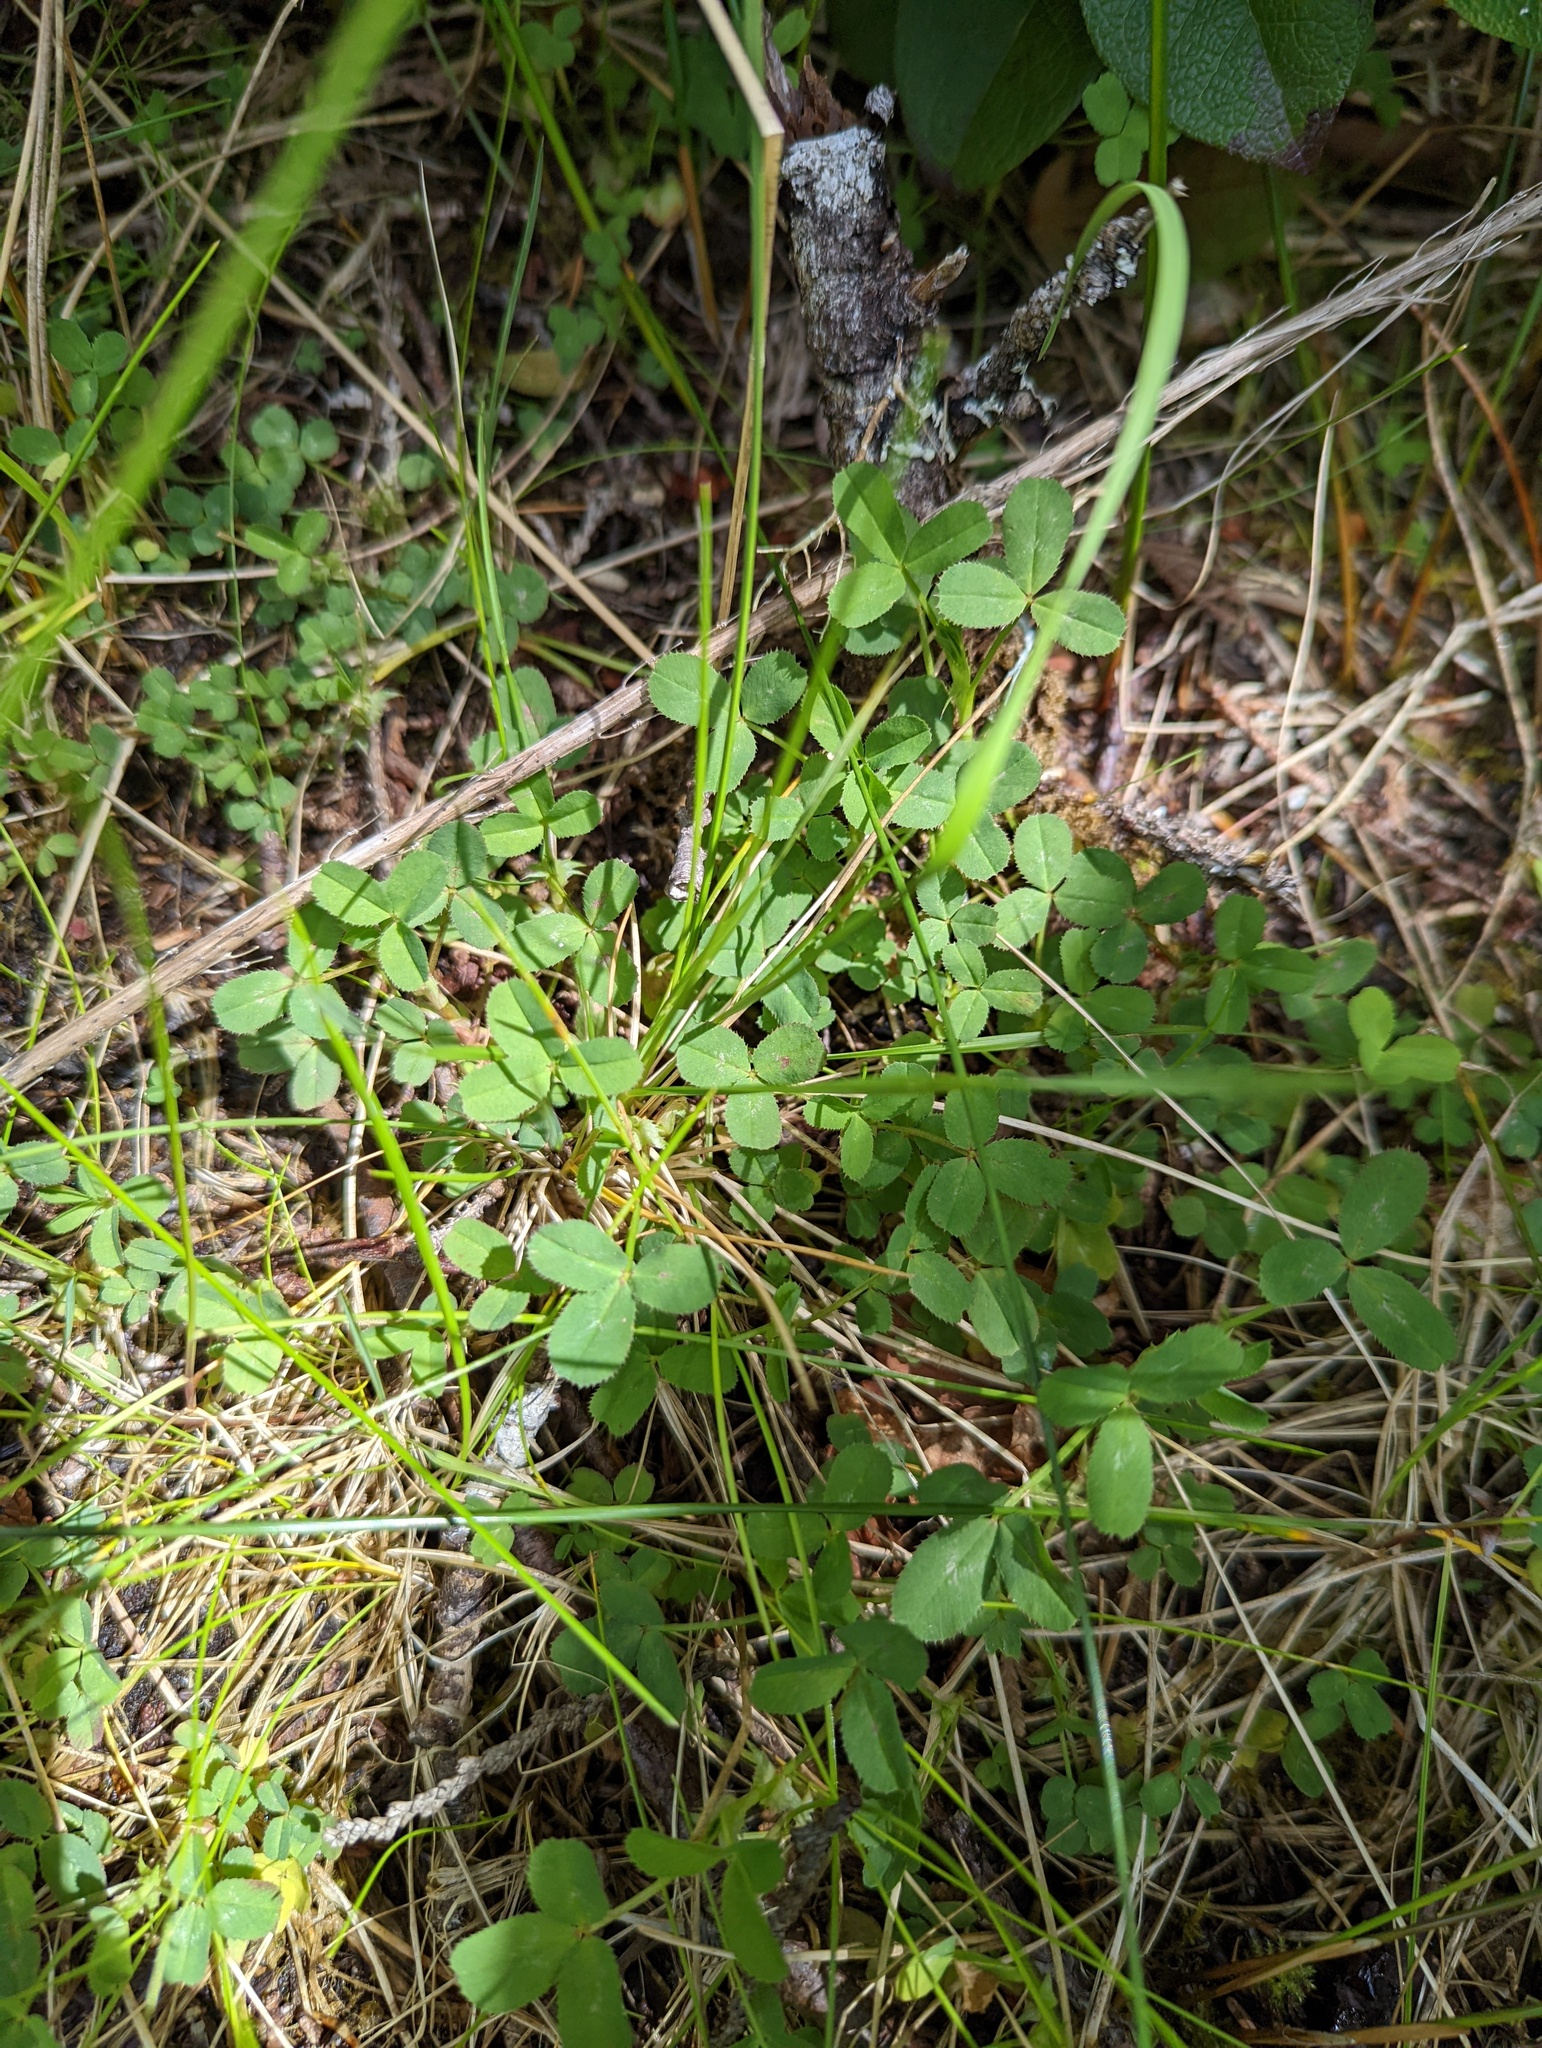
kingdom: Plantae
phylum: Tracheophyta
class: Magnoliopsida
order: Fabales
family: Fabaceae
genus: Trifolium
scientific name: Trifolium wormskioldii
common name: Springbank clover
